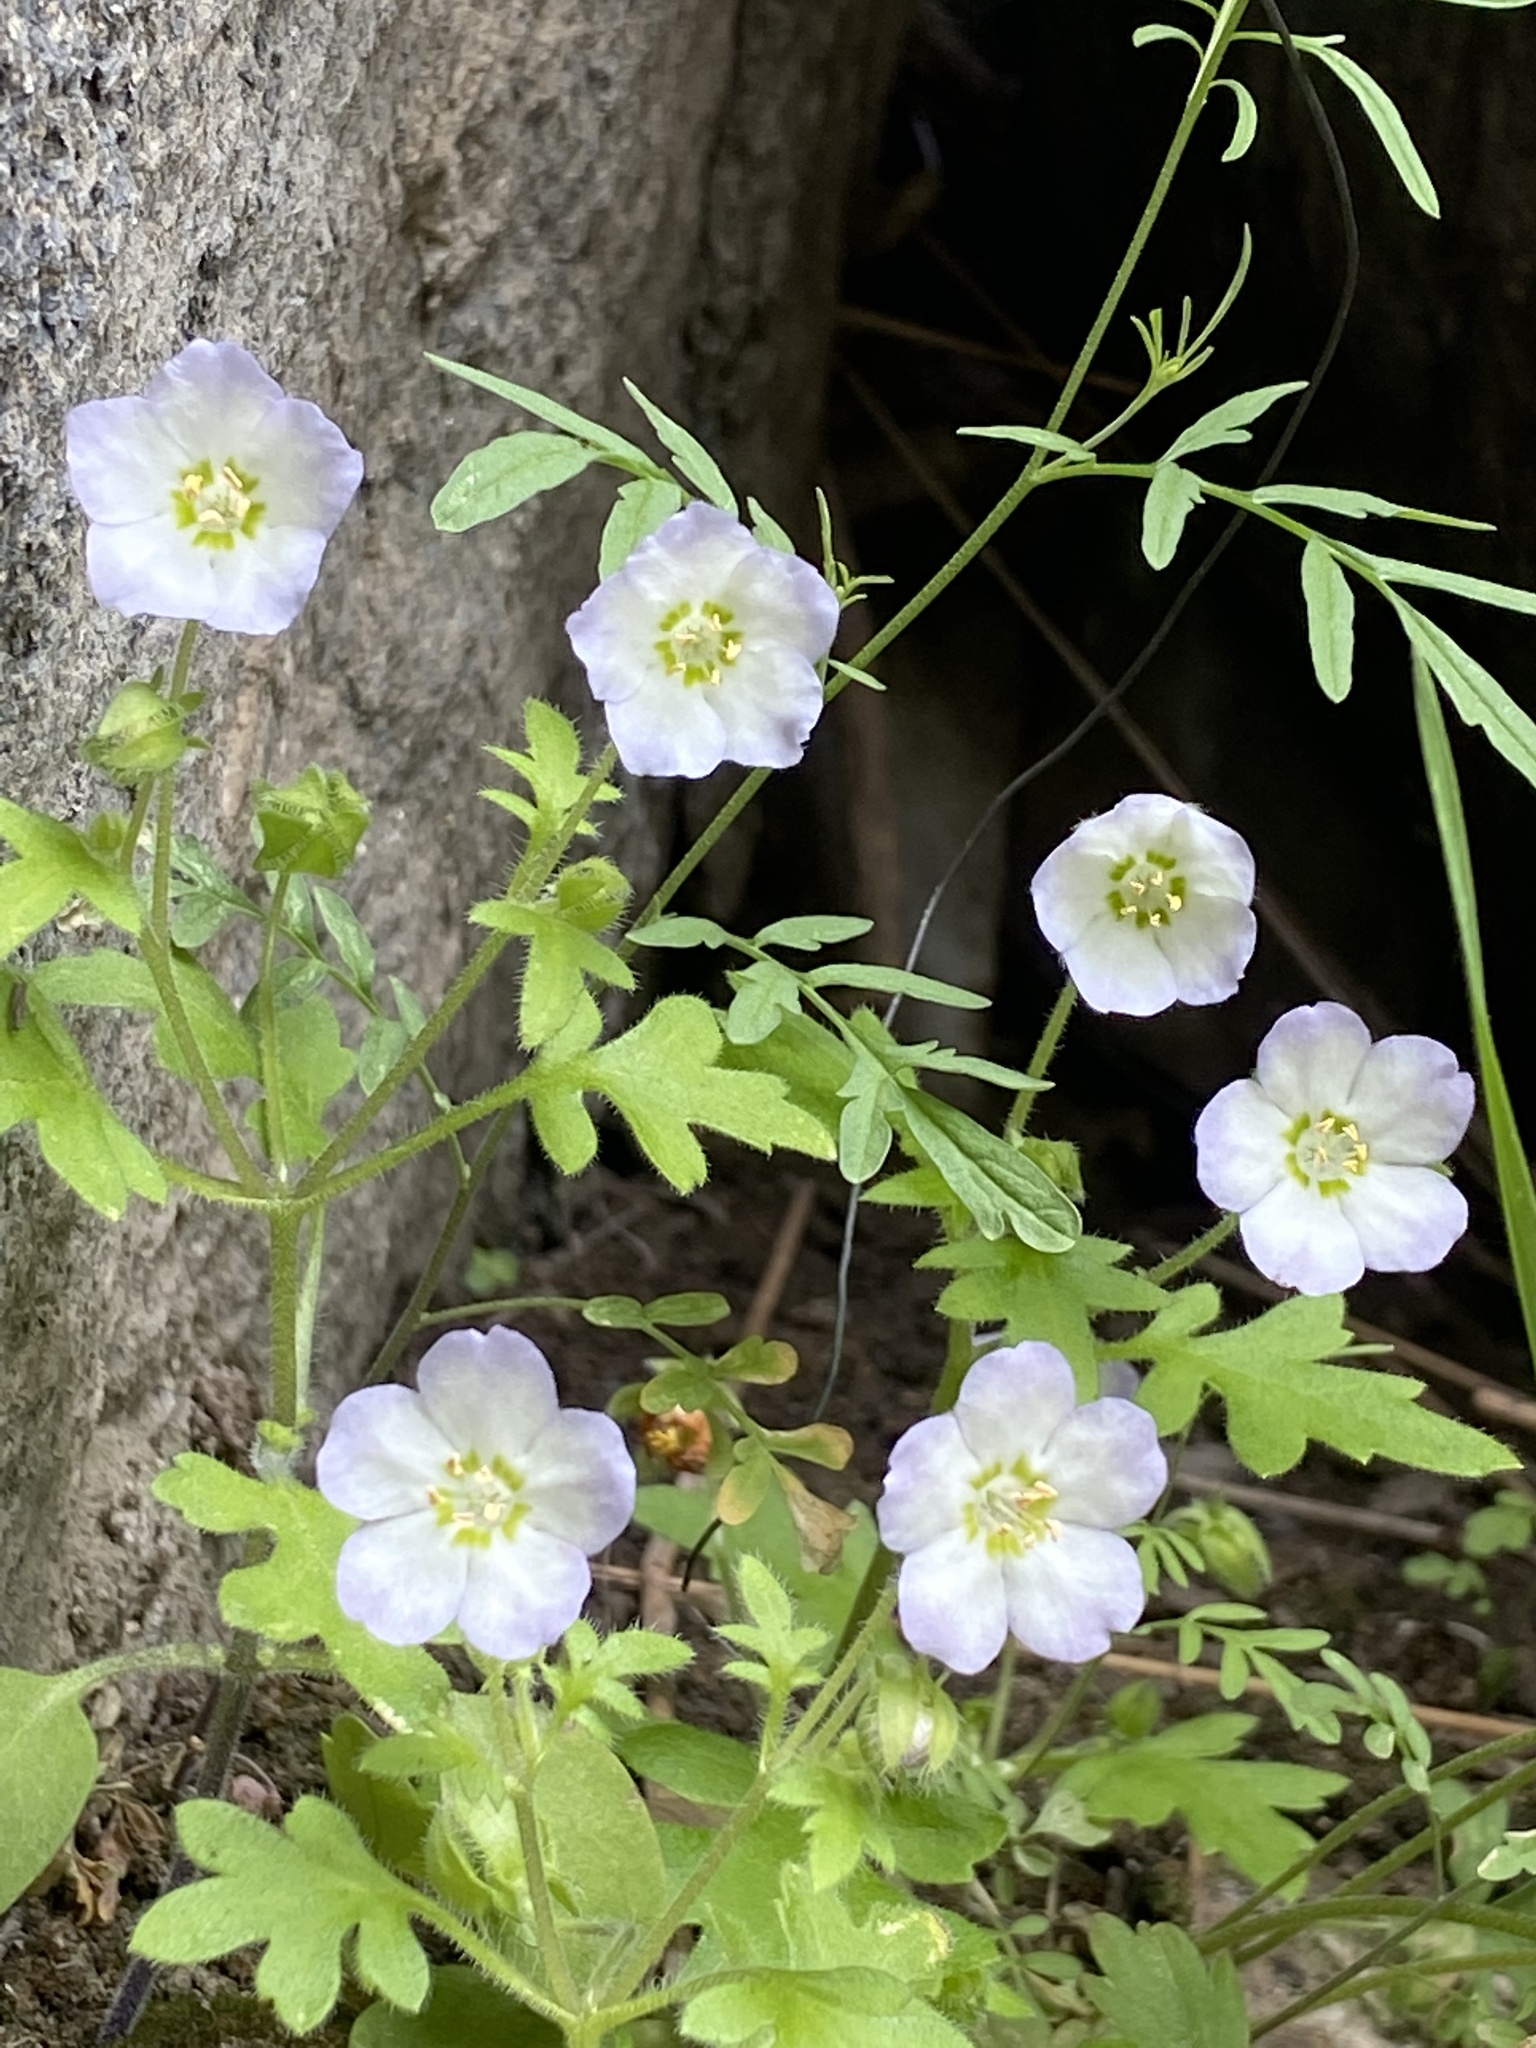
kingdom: Plantae
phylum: Tracheophyta
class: Magnoliopsida
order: Boraginales
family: Hydrophyllaceae
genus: Nemophila
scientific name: Nemophila kirtleyi
